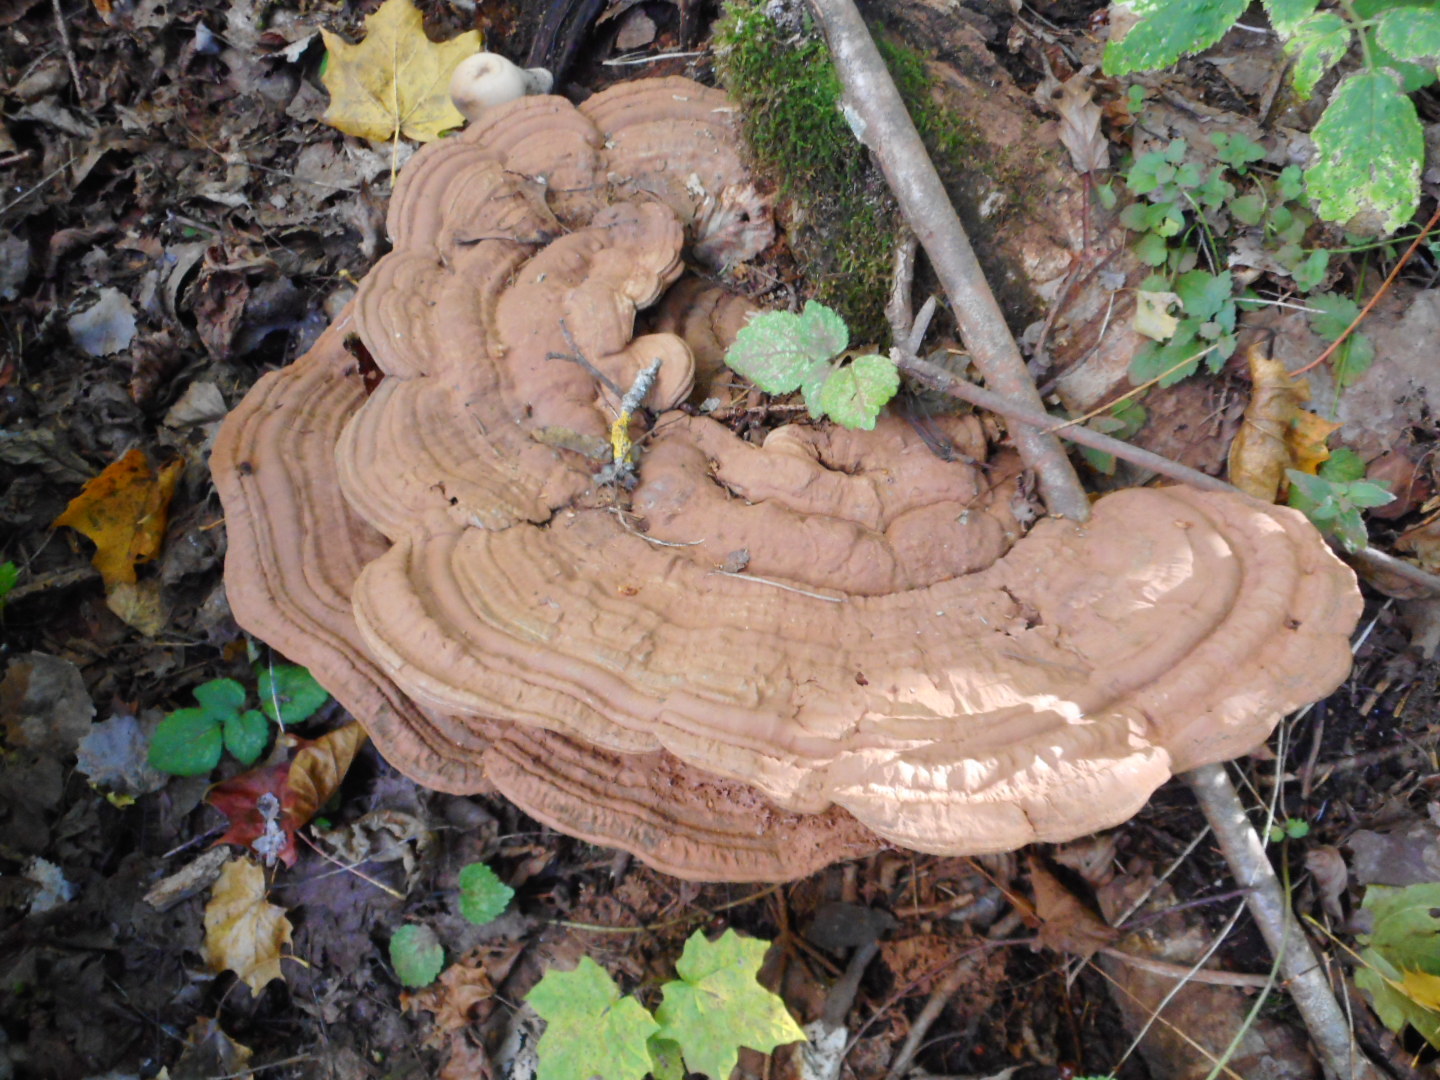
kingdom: Fungi
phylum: Basidiomycota
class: Agaricomycetes
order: Polyporales
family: Polyporaceae
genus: Ganoderma
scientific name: Ganoderma applanatum
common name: Artist's bracket
